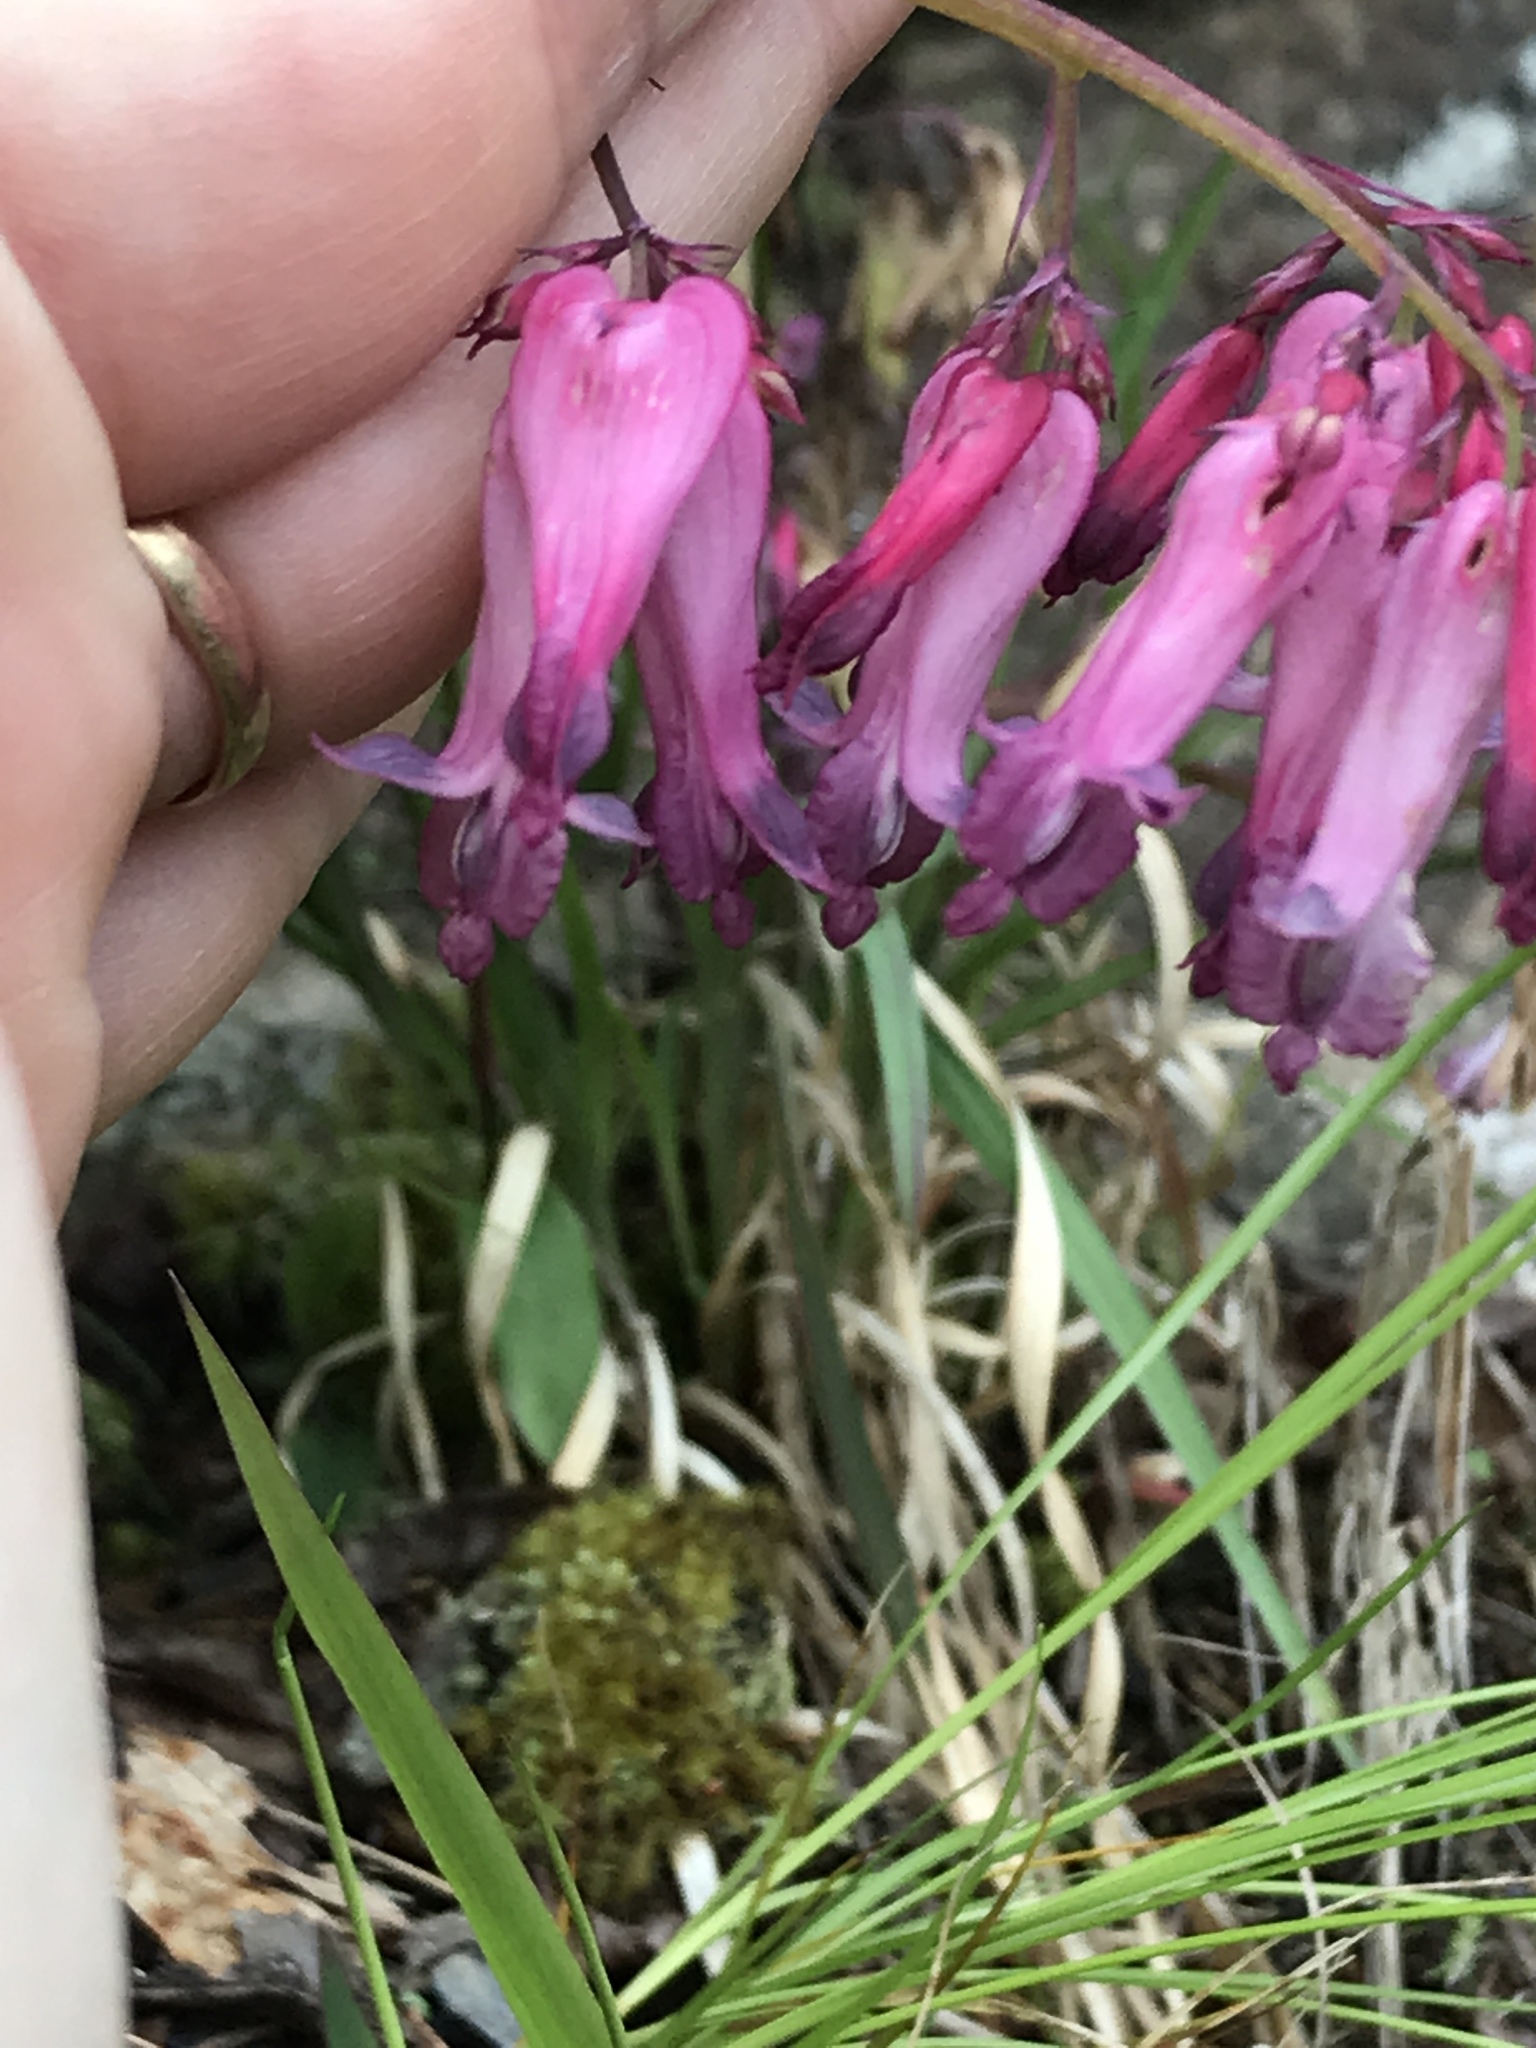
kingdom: Plantae
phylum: Tracheophyta
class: Magnoliopsida
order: Ranunculales
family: Papaveraceae
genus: Dicentra
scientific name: Dicentra eximia
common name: Turkey-corn
